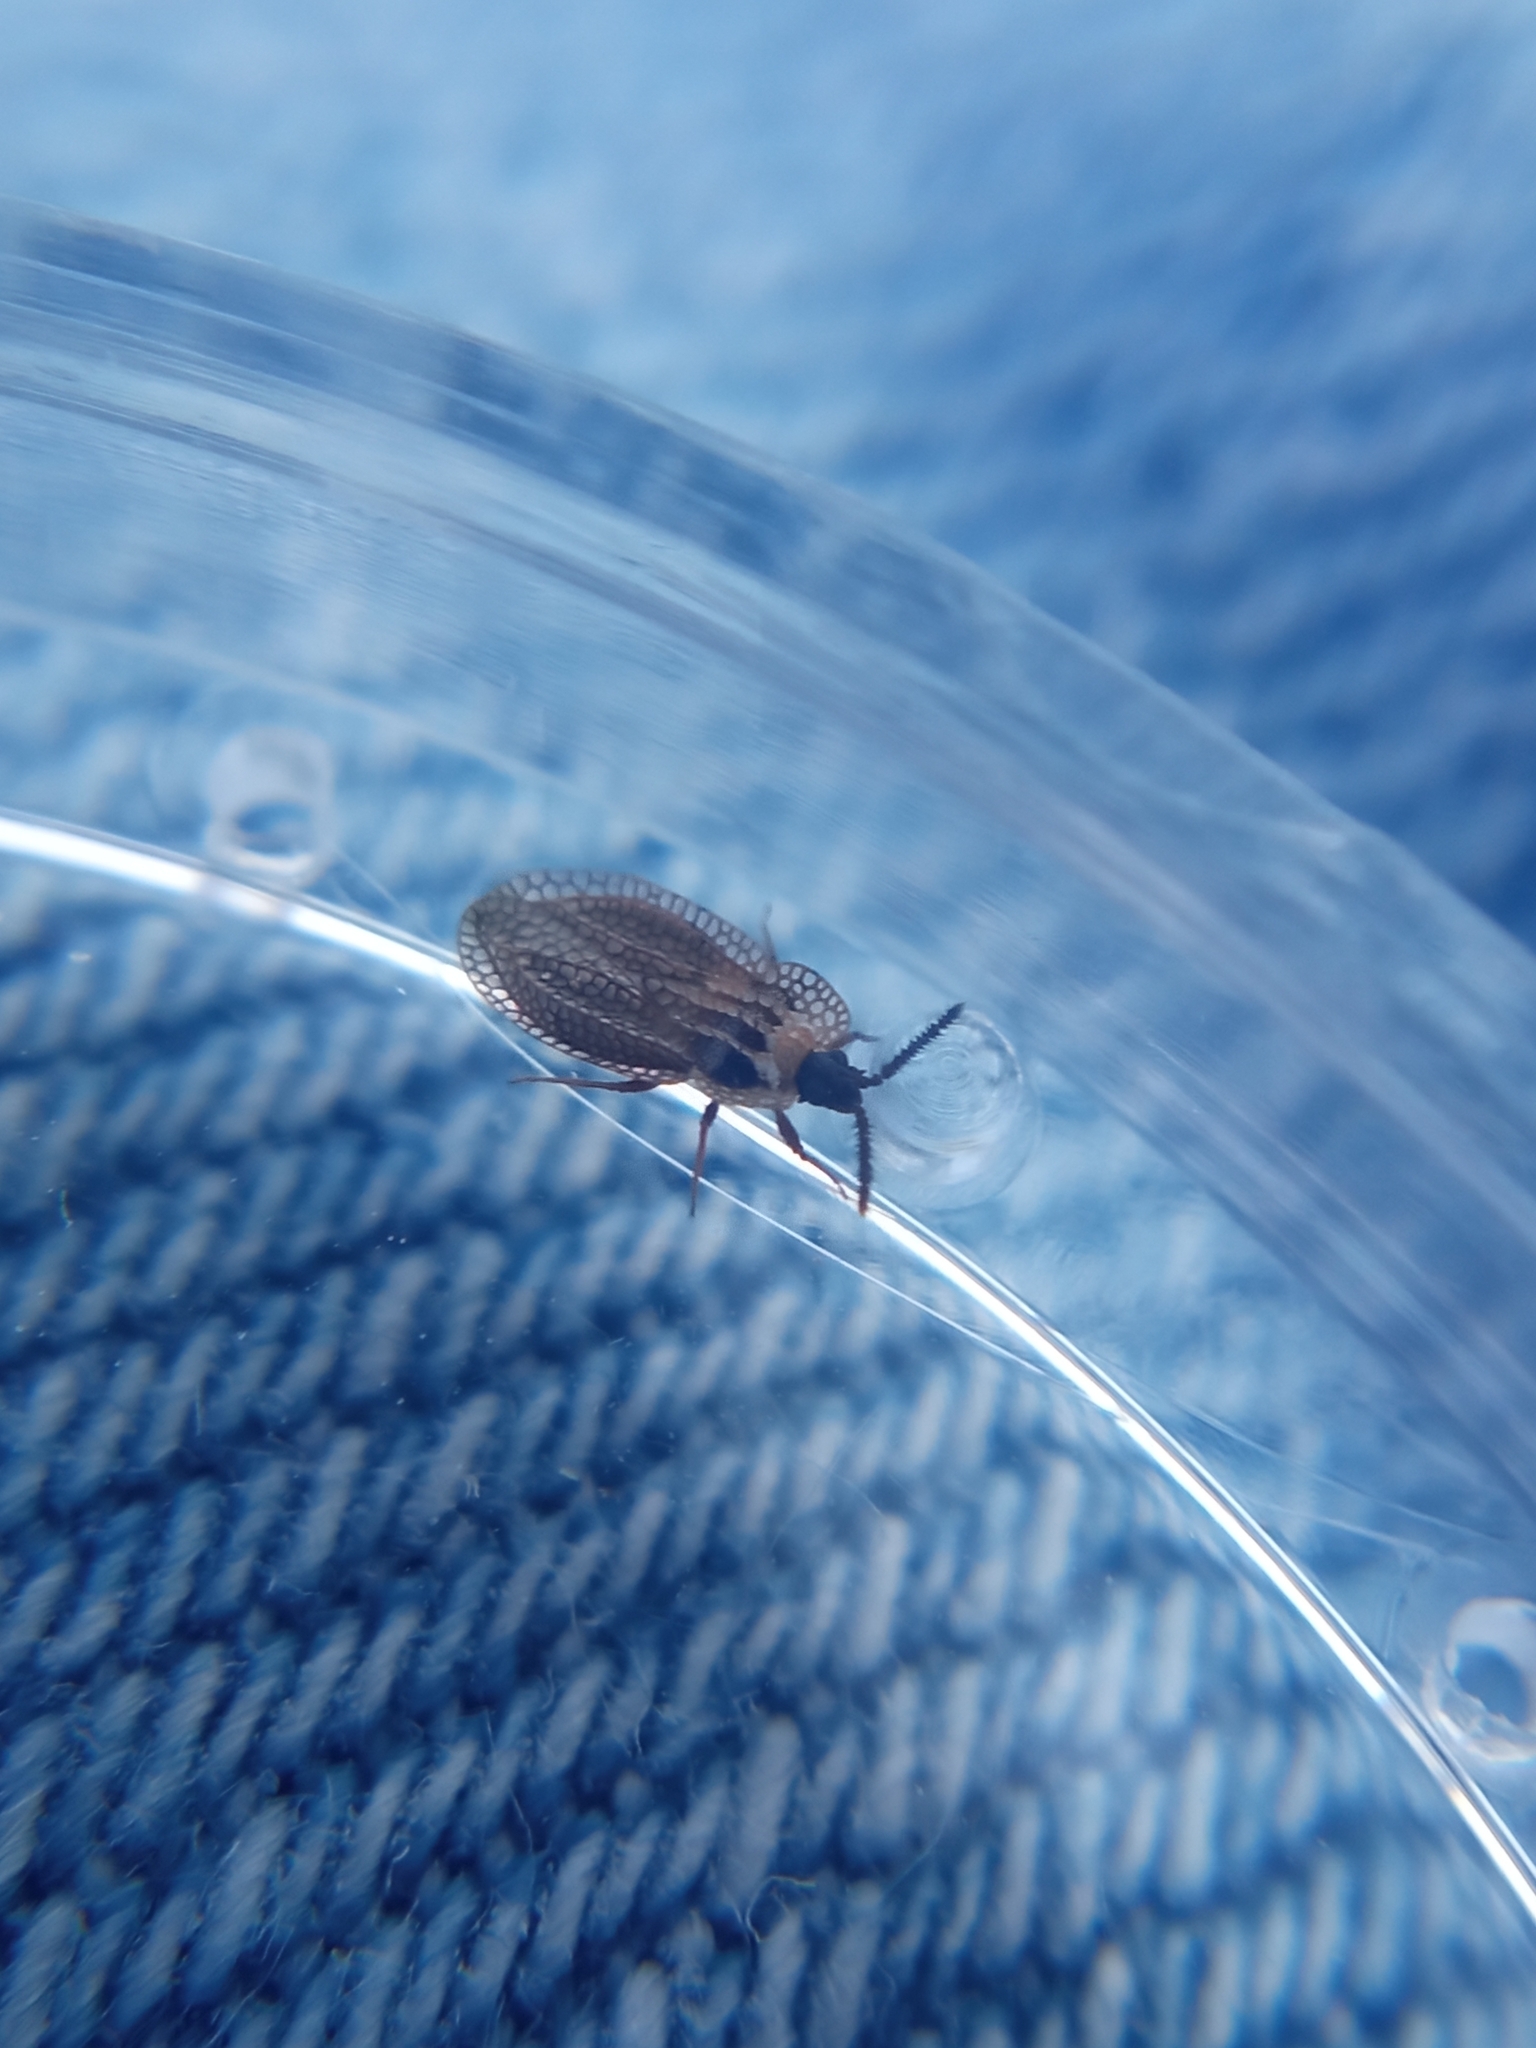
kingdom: Animalia
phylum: Arthropoda
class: Insecta
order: Hemiptera
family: Tingidae
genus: Dictyonota
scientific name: Dictyonota tricornis
